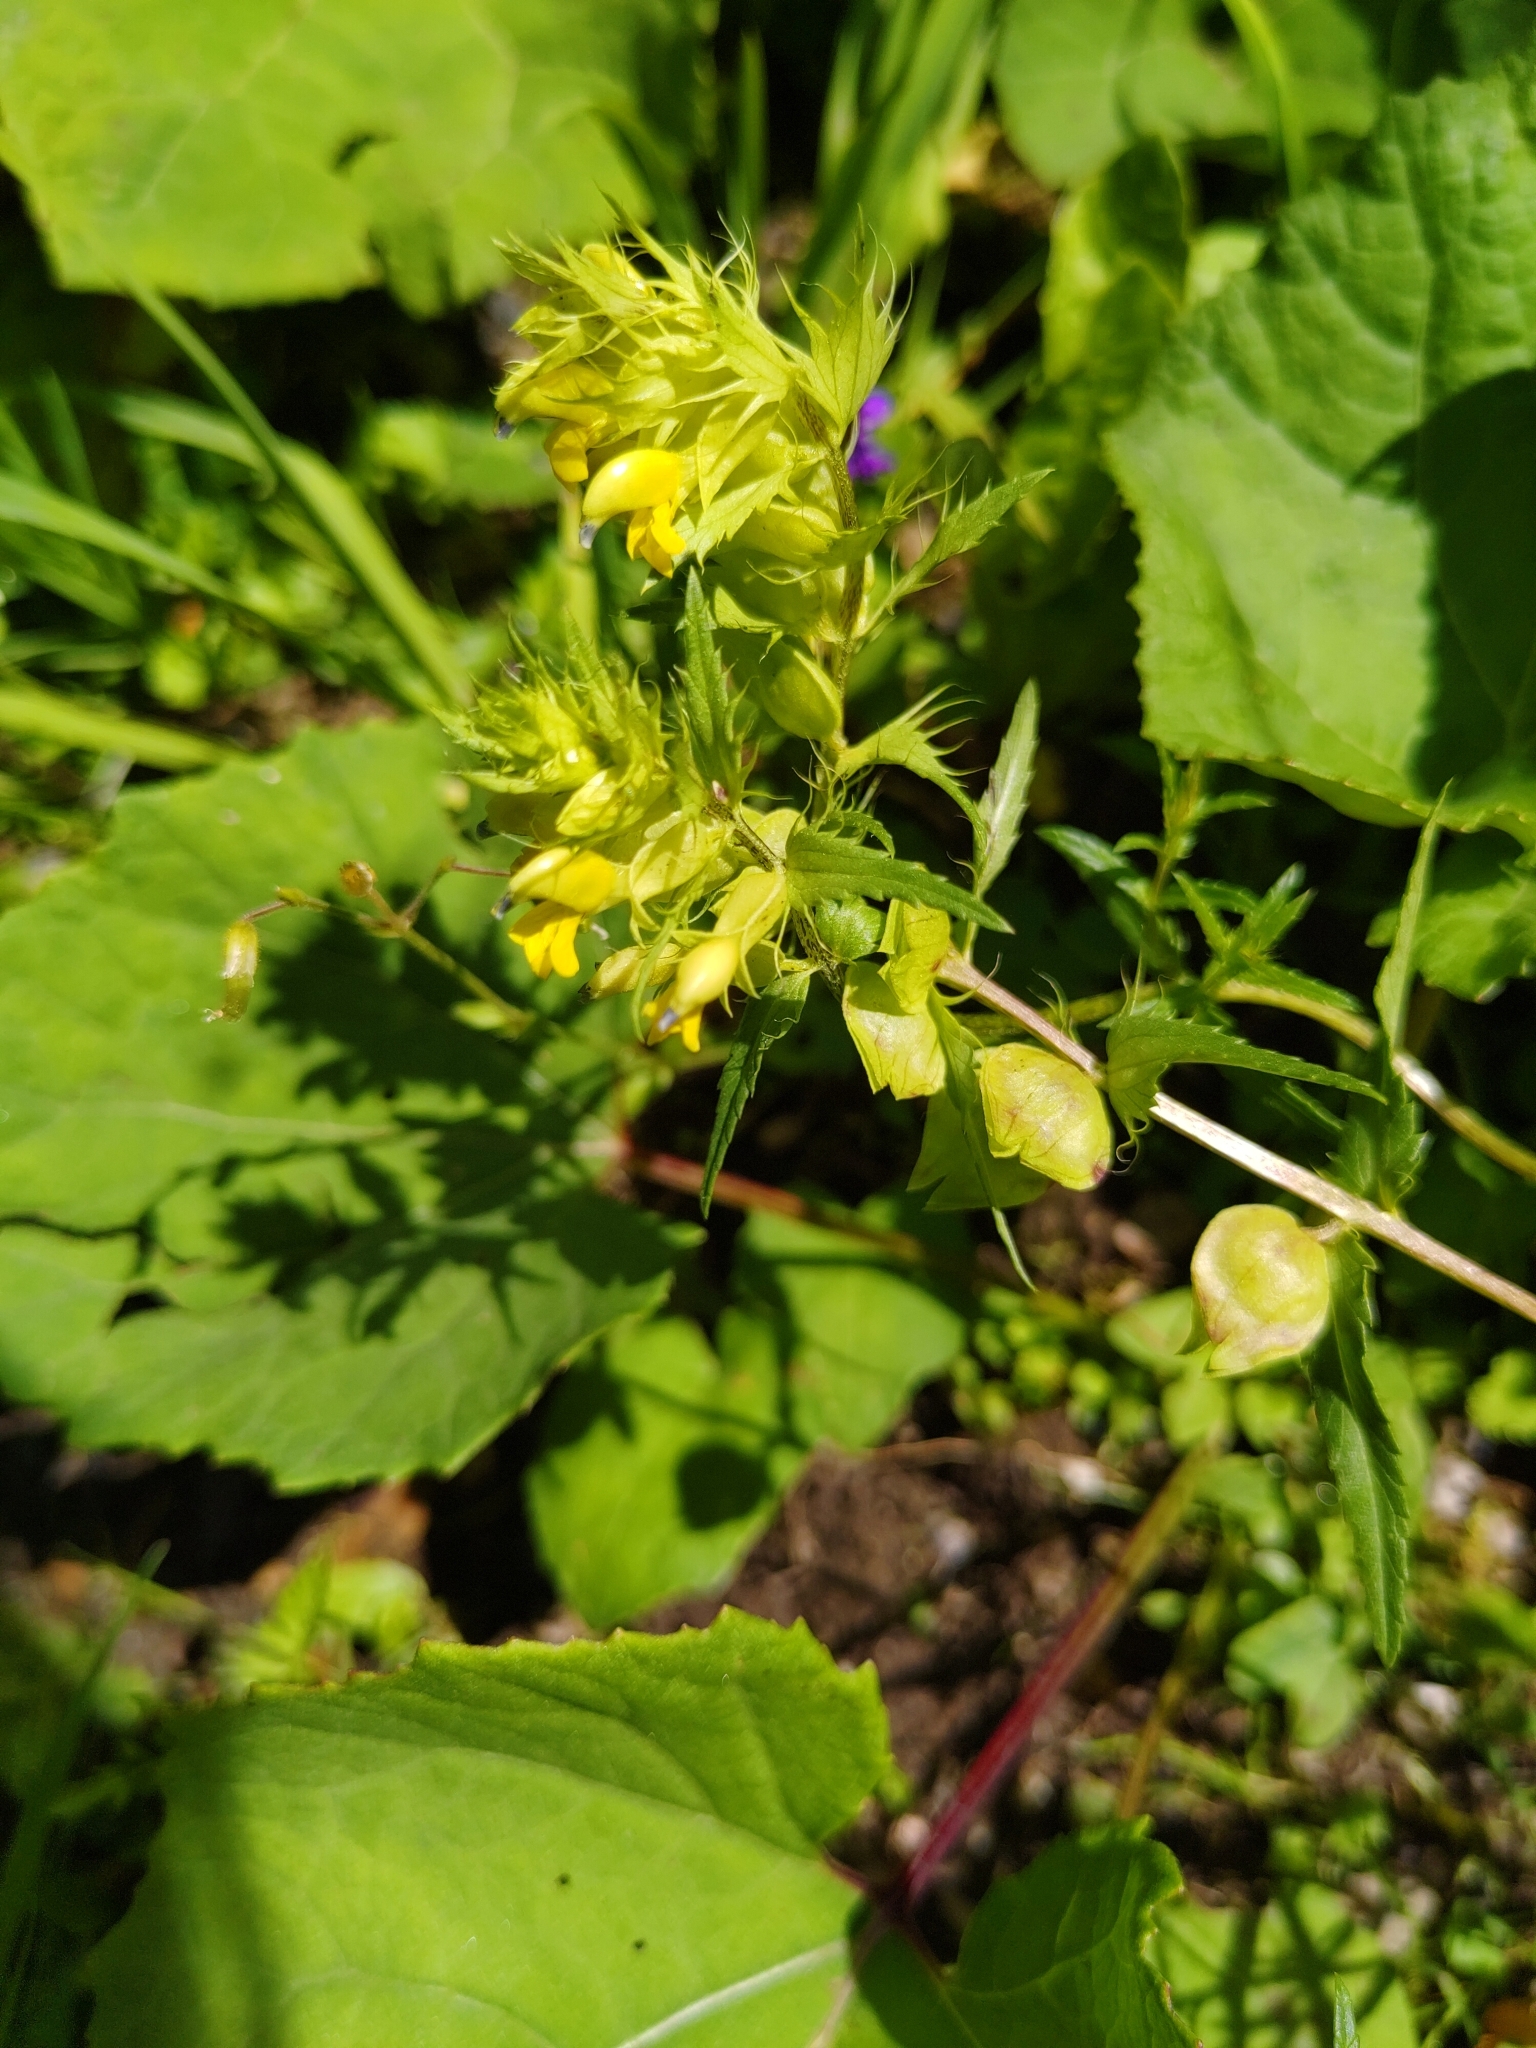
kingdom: Plantae
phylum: Tracheophyta
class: Magnoliopsida
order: Lamiales
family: Orobanchaceae
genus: Rhinanthus
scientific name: Rhinanthus glacialis
